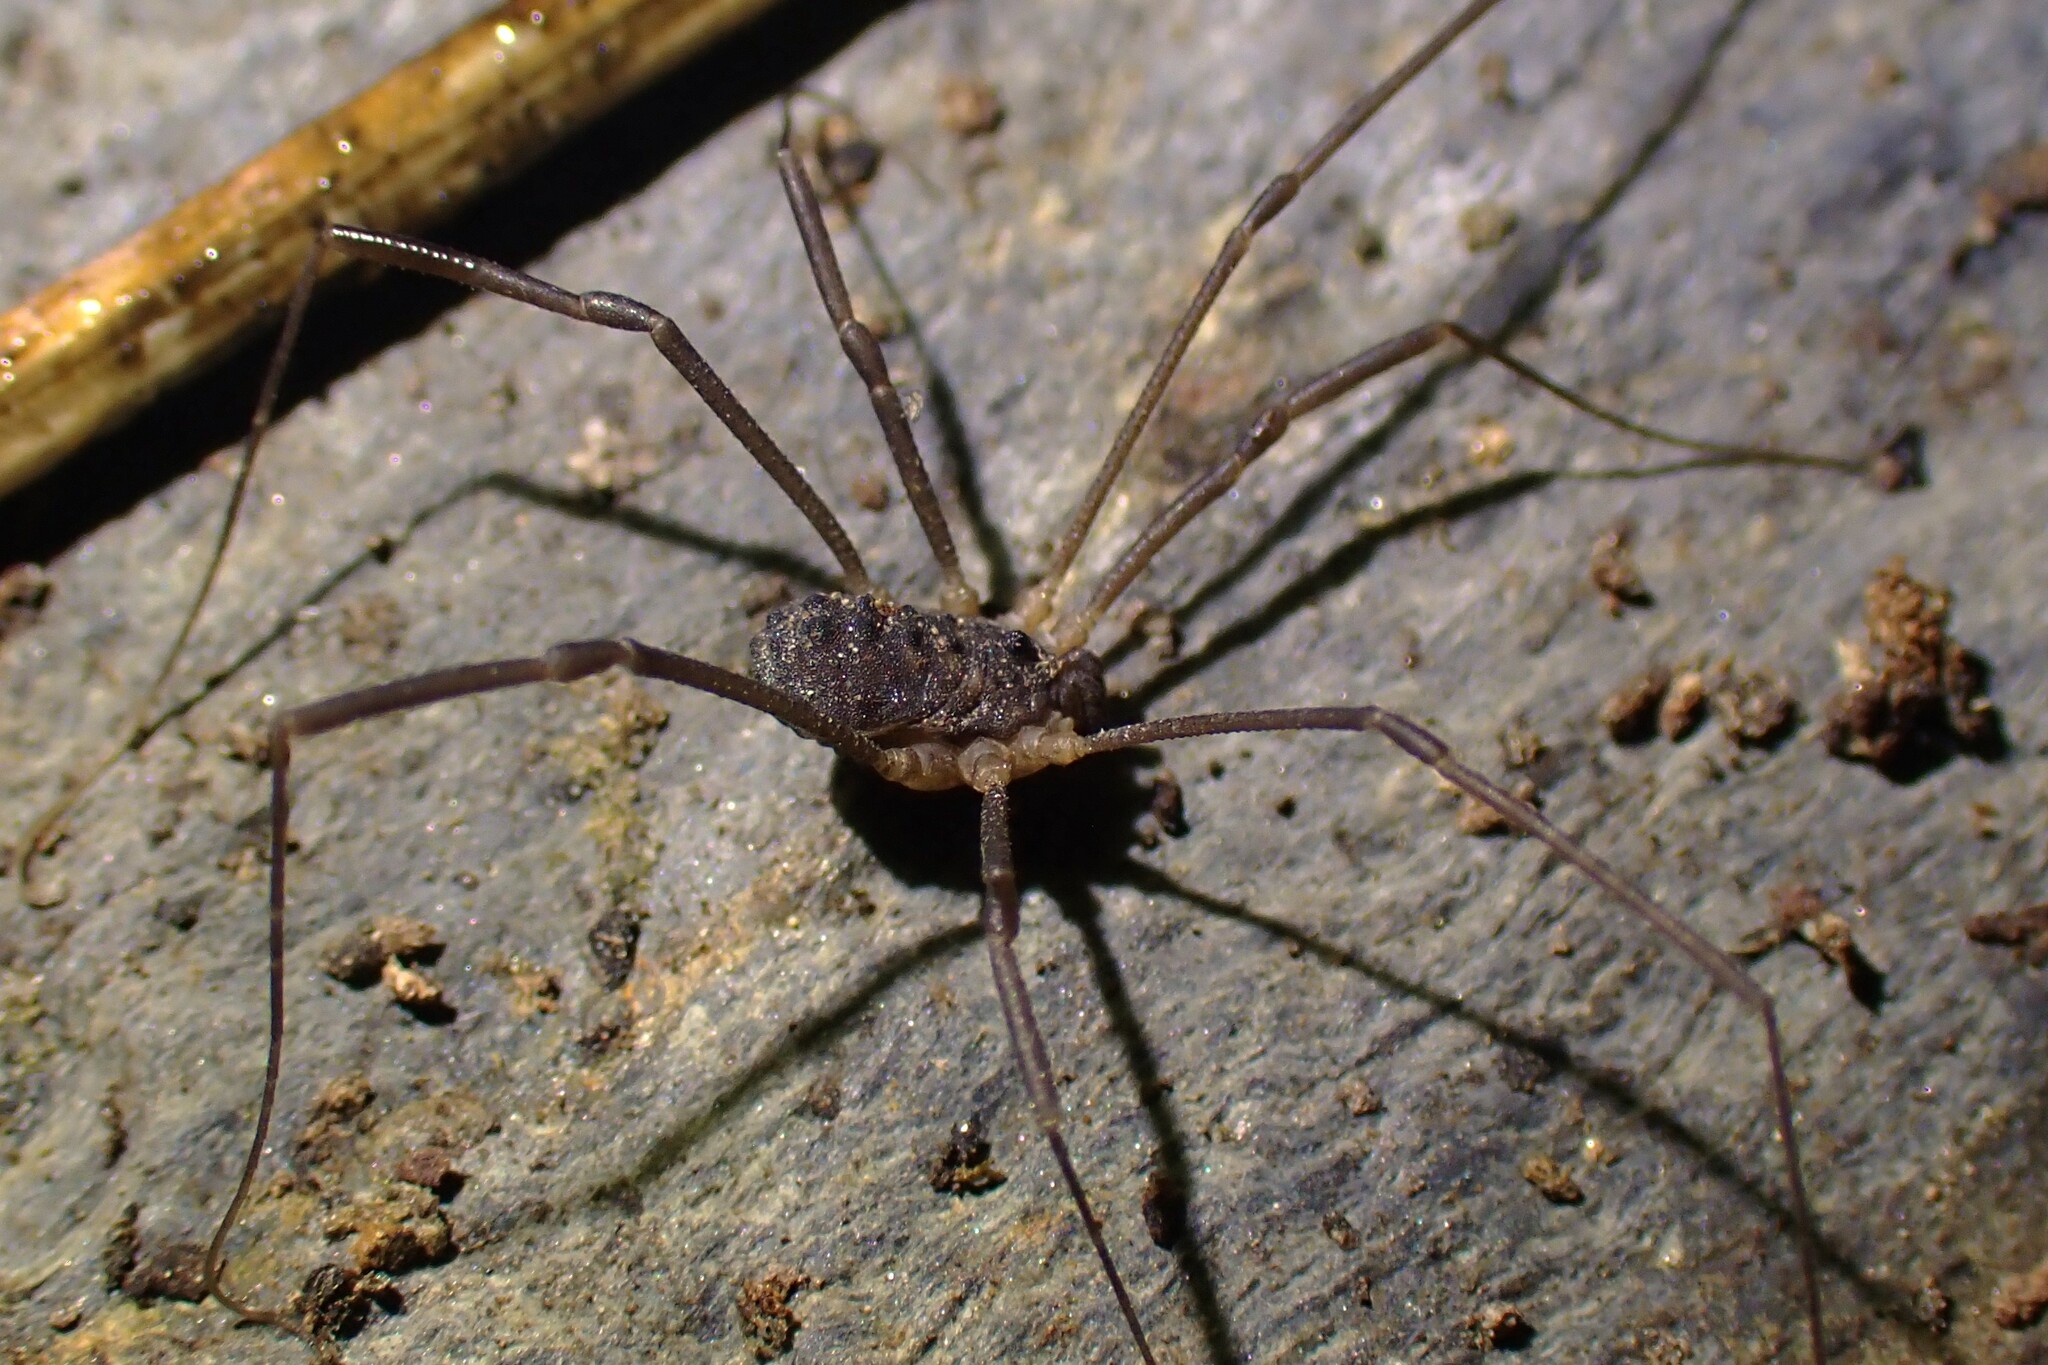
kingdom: Animalia
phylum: Arthropoda
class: Arachnida
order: Opiliones
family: Sclerosomatidae
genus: Astrobunus
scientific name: Astrobunus grallator
